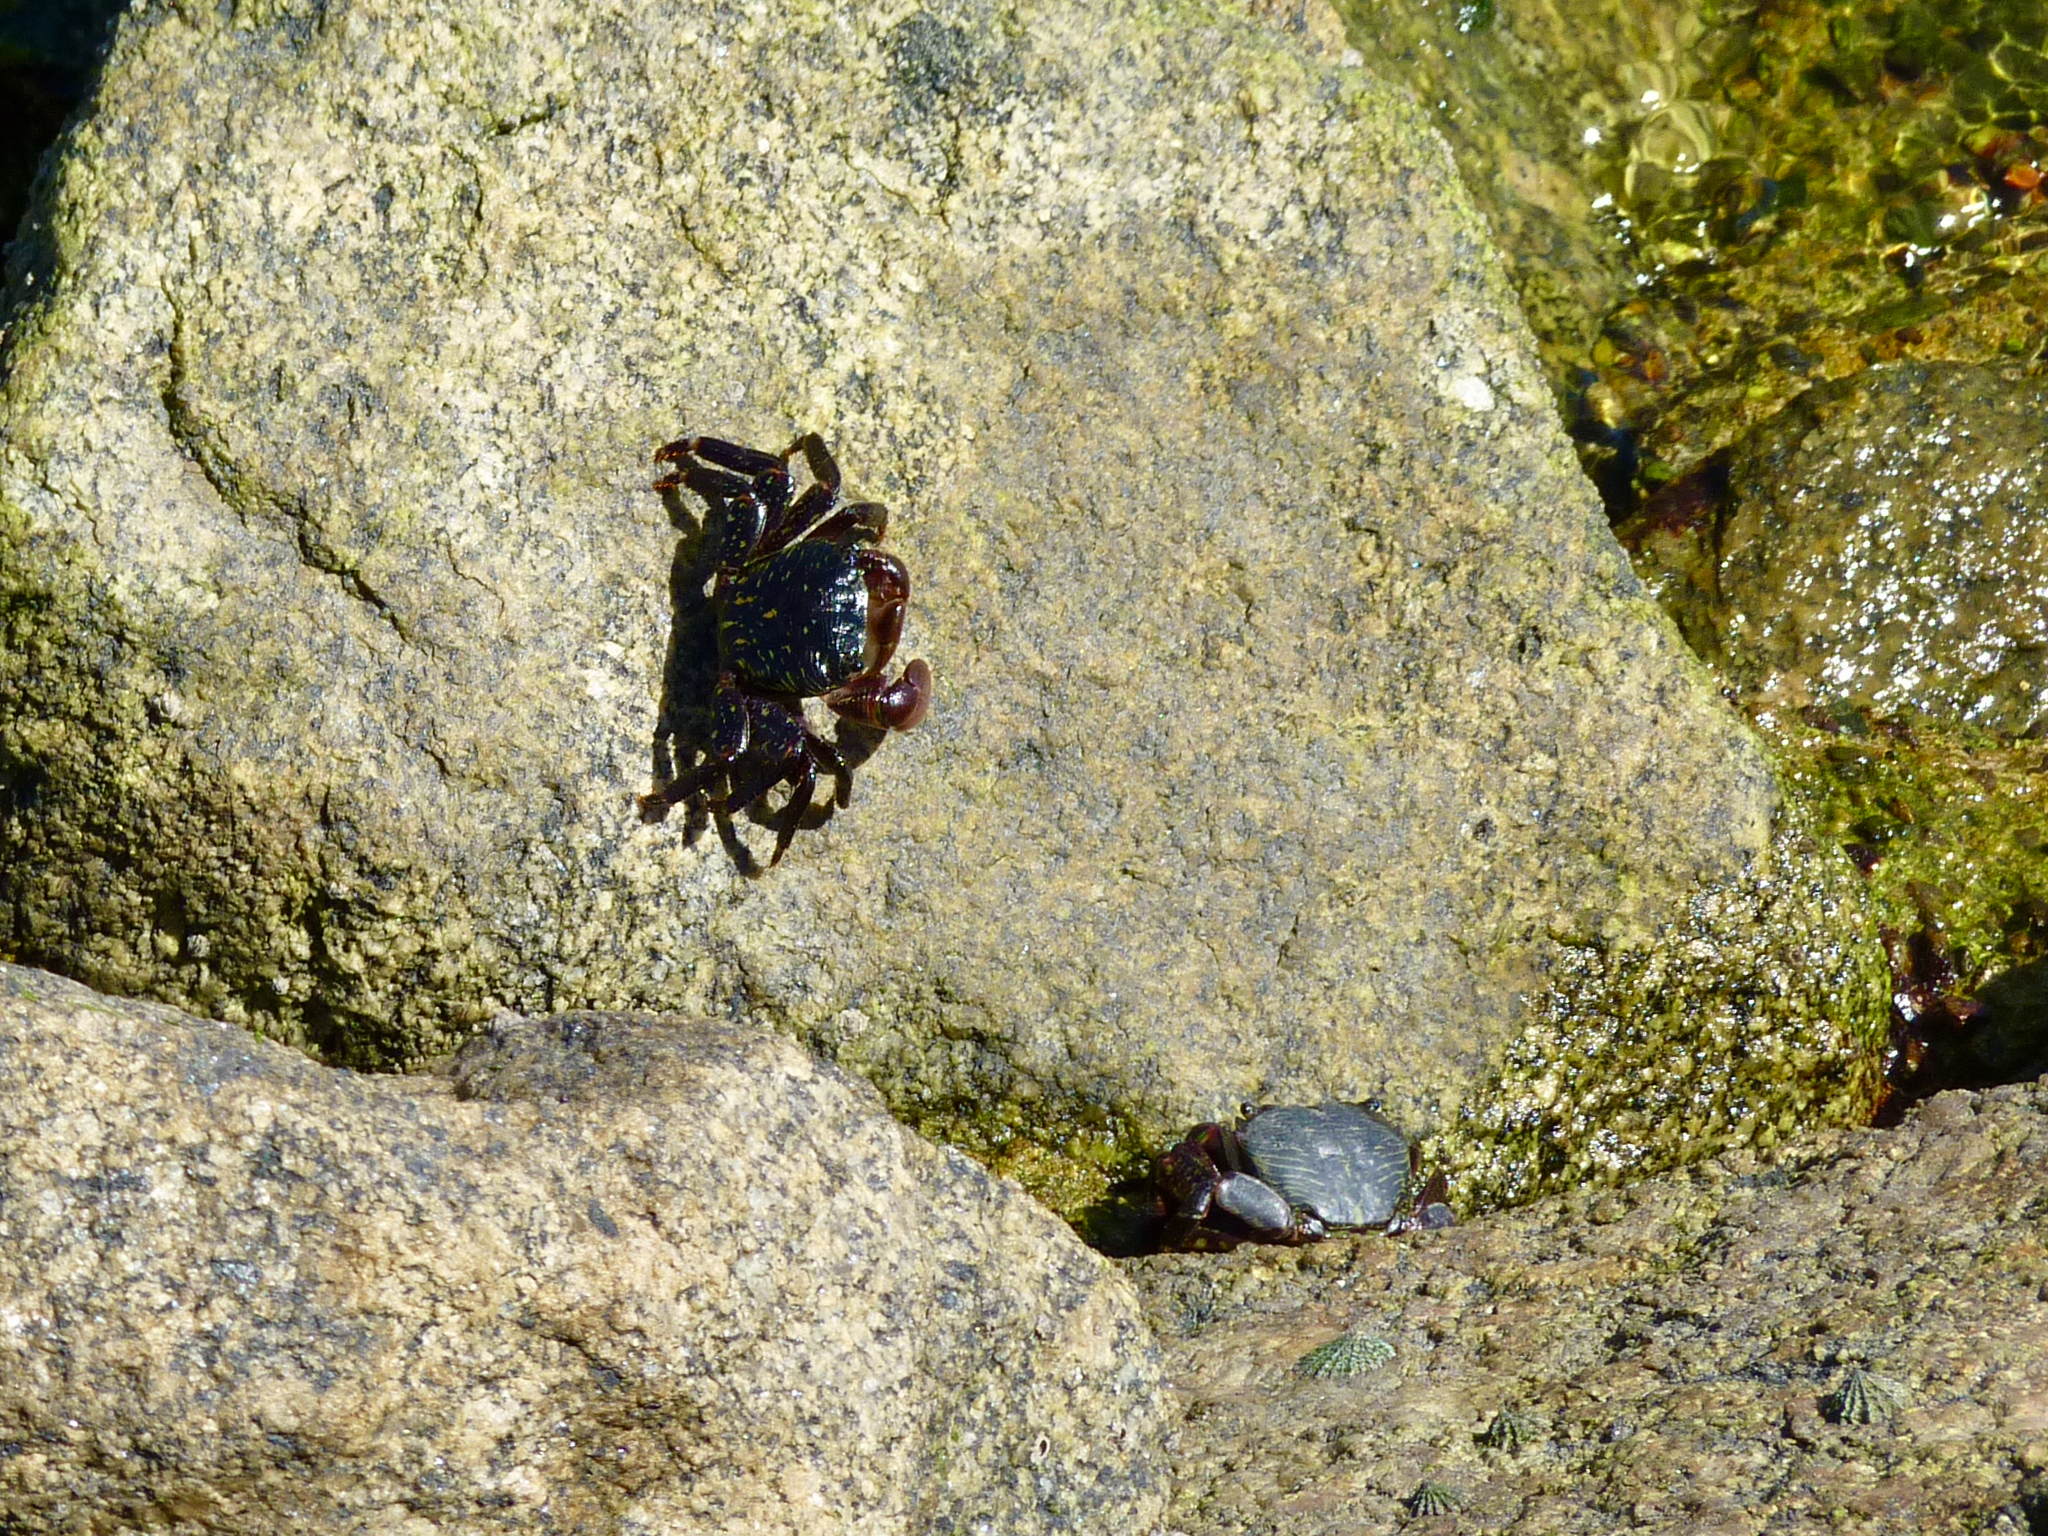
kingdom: Animalia
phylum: Arthropoda
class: Malacostraca
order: Decapoda
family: Grapsidae
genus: Pachygrapsus
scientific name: Pachygrapsus crassipes
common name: Striped shore crab
